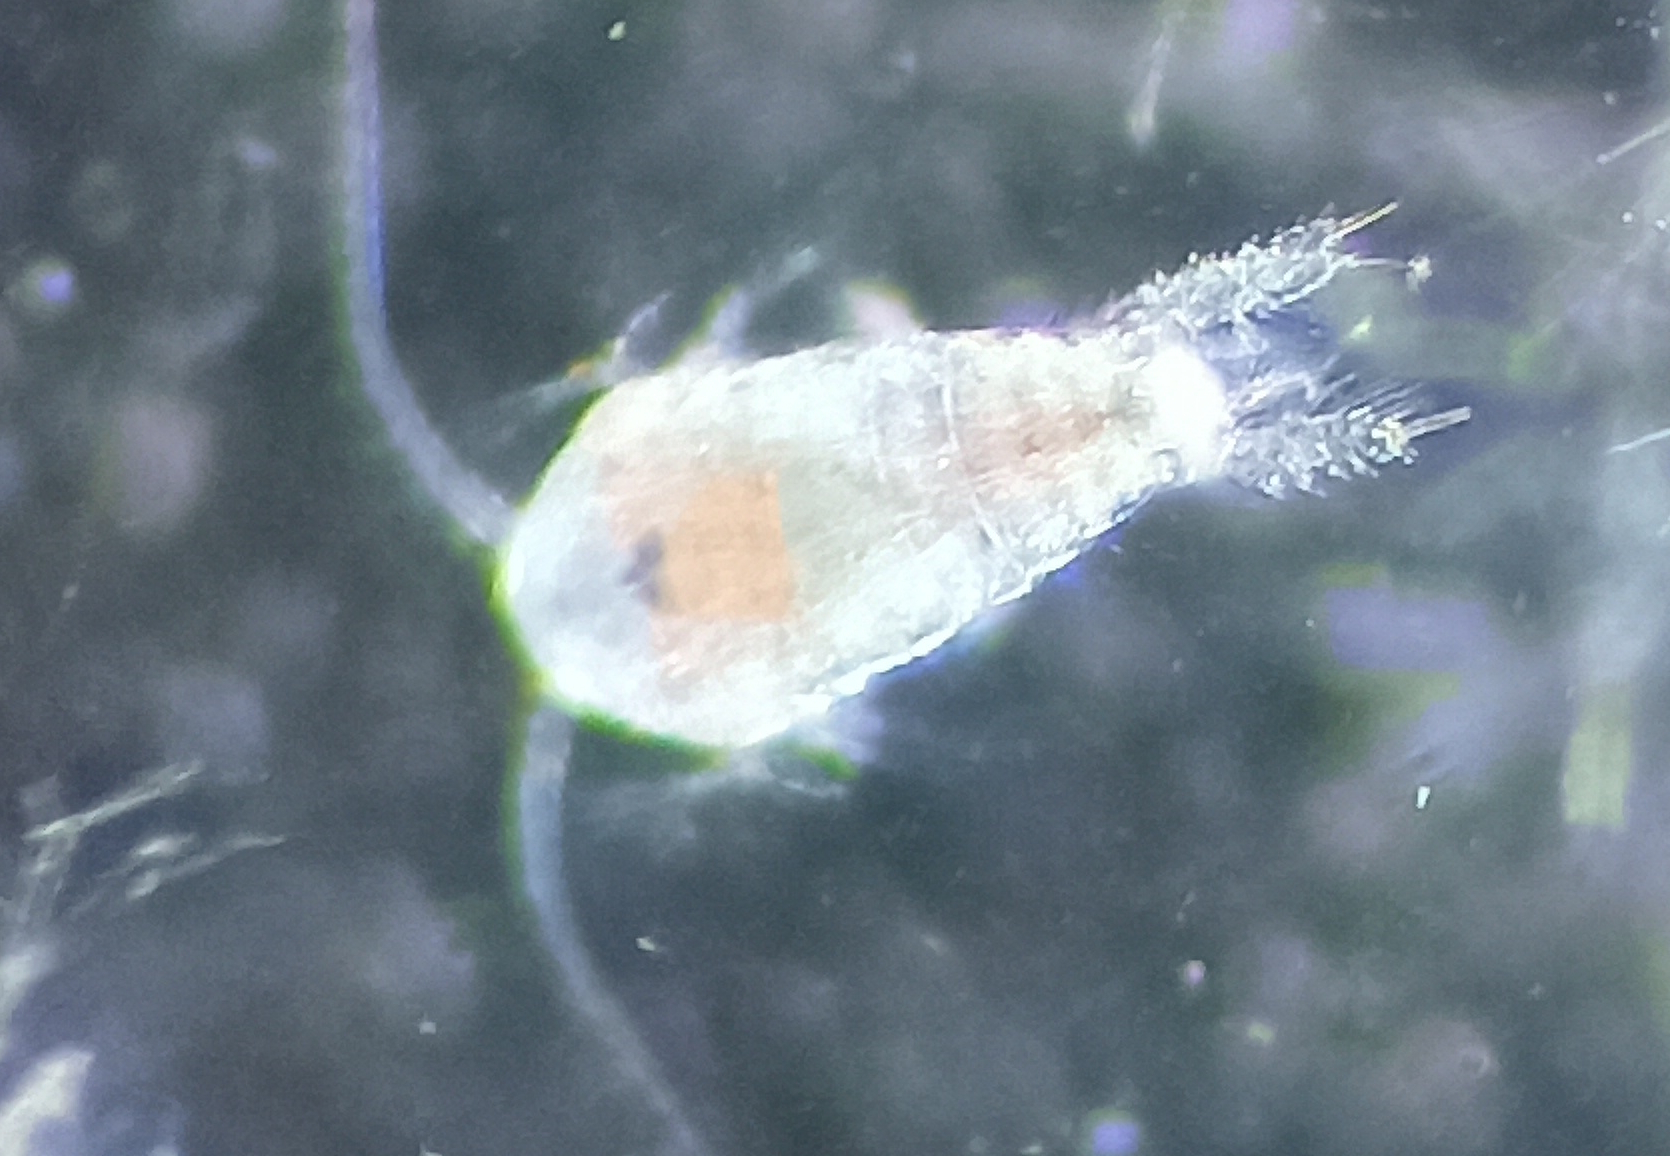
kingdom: Animalia
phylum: Arthropoda
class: Copepoda
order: Calanoida
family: Temoridae
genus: Temora
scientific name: Temora turbinata
